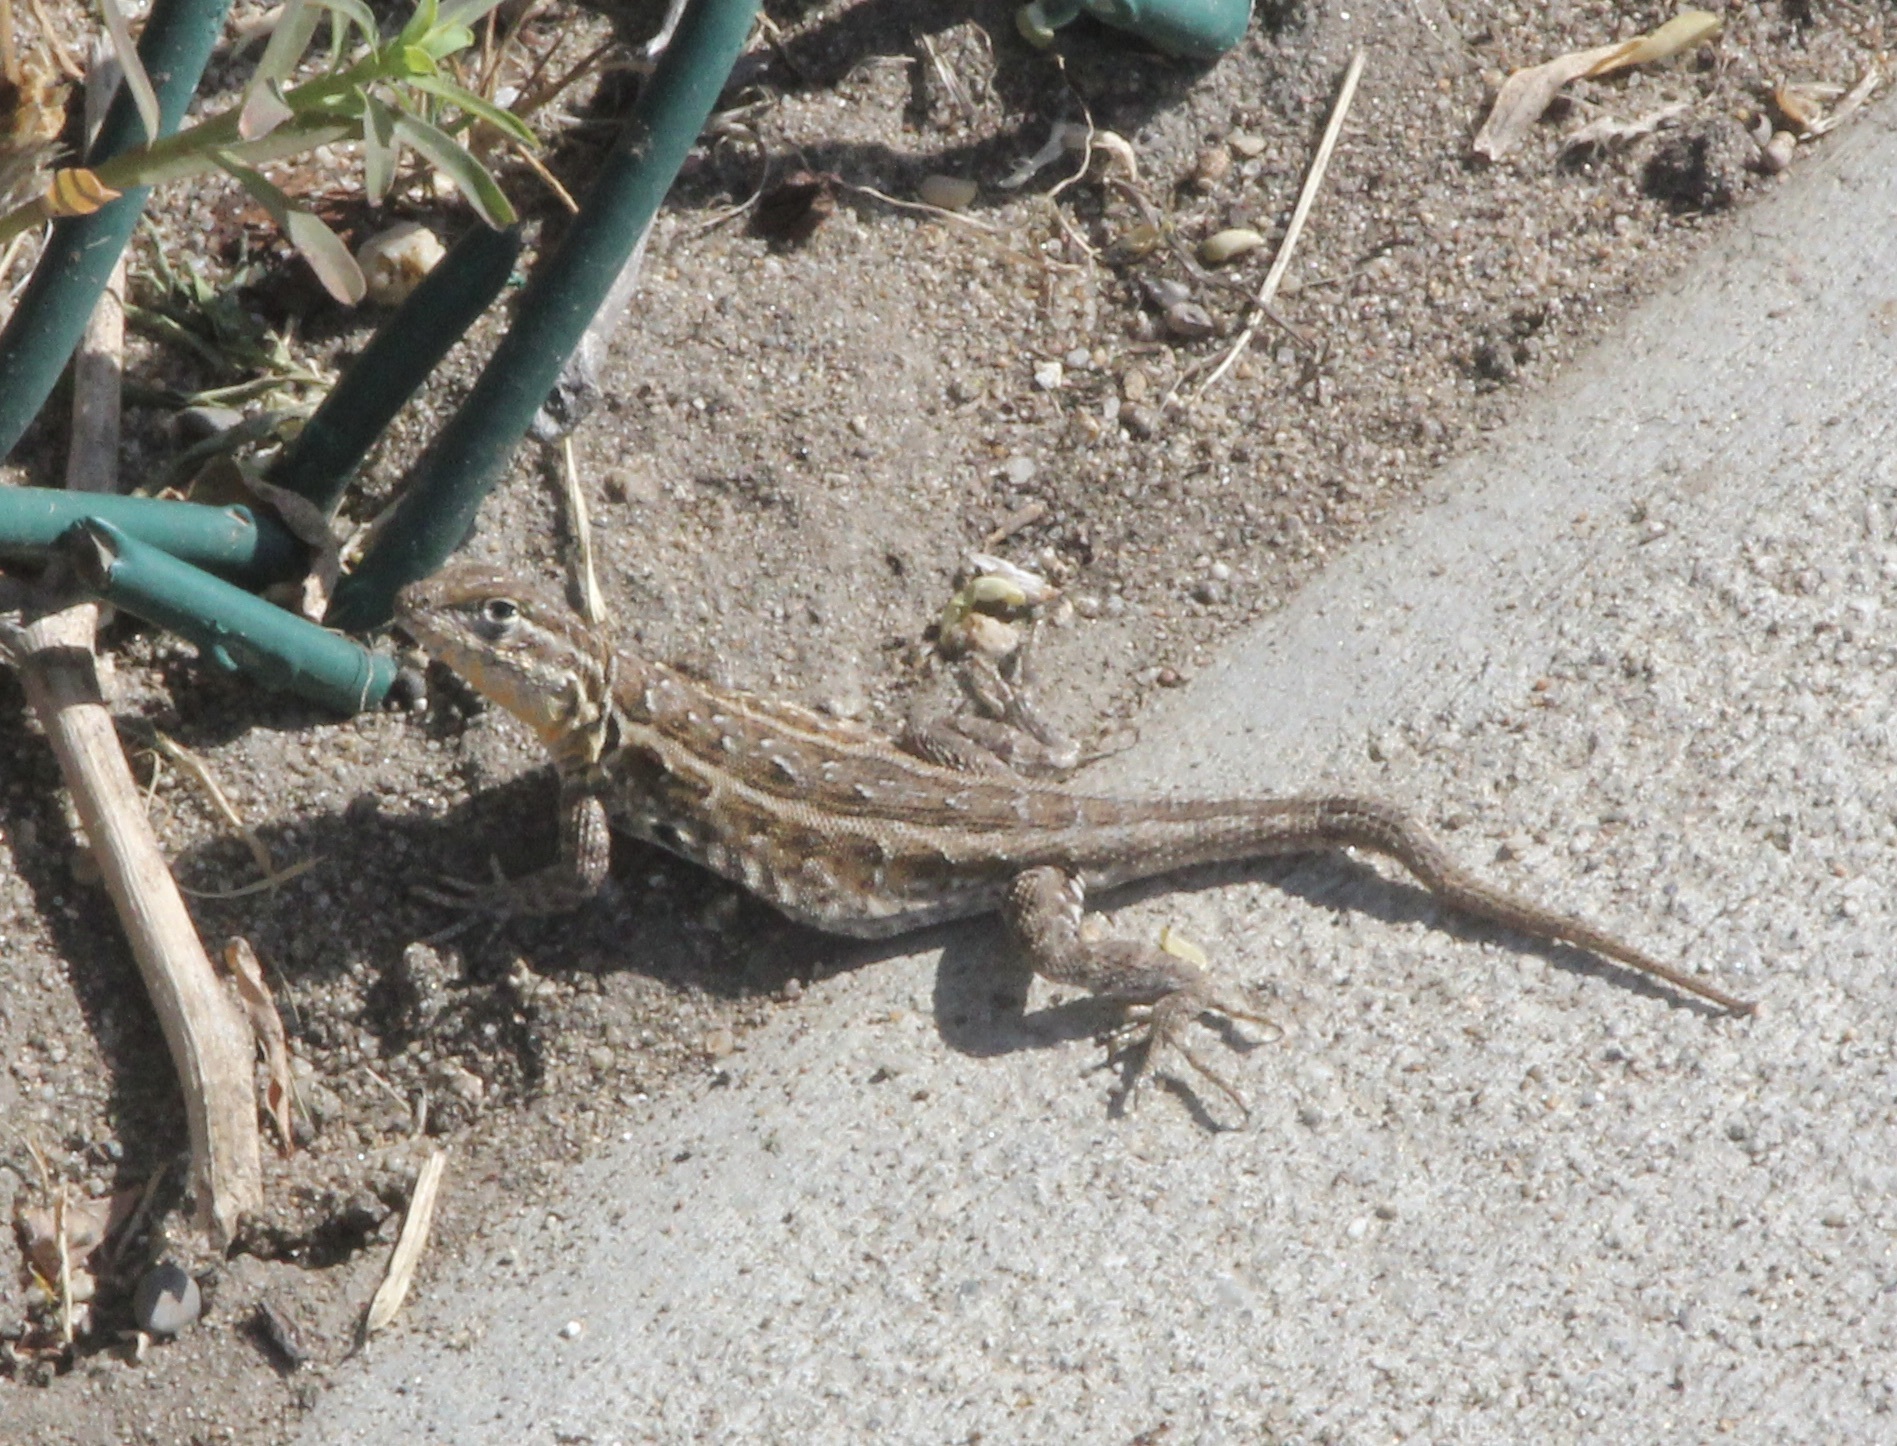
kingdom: Animalia
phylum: Chordata
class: Squamata
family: Phrynosomatidae
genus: Uta
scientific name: Uta stansburiana
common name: Side-blotched lizard
